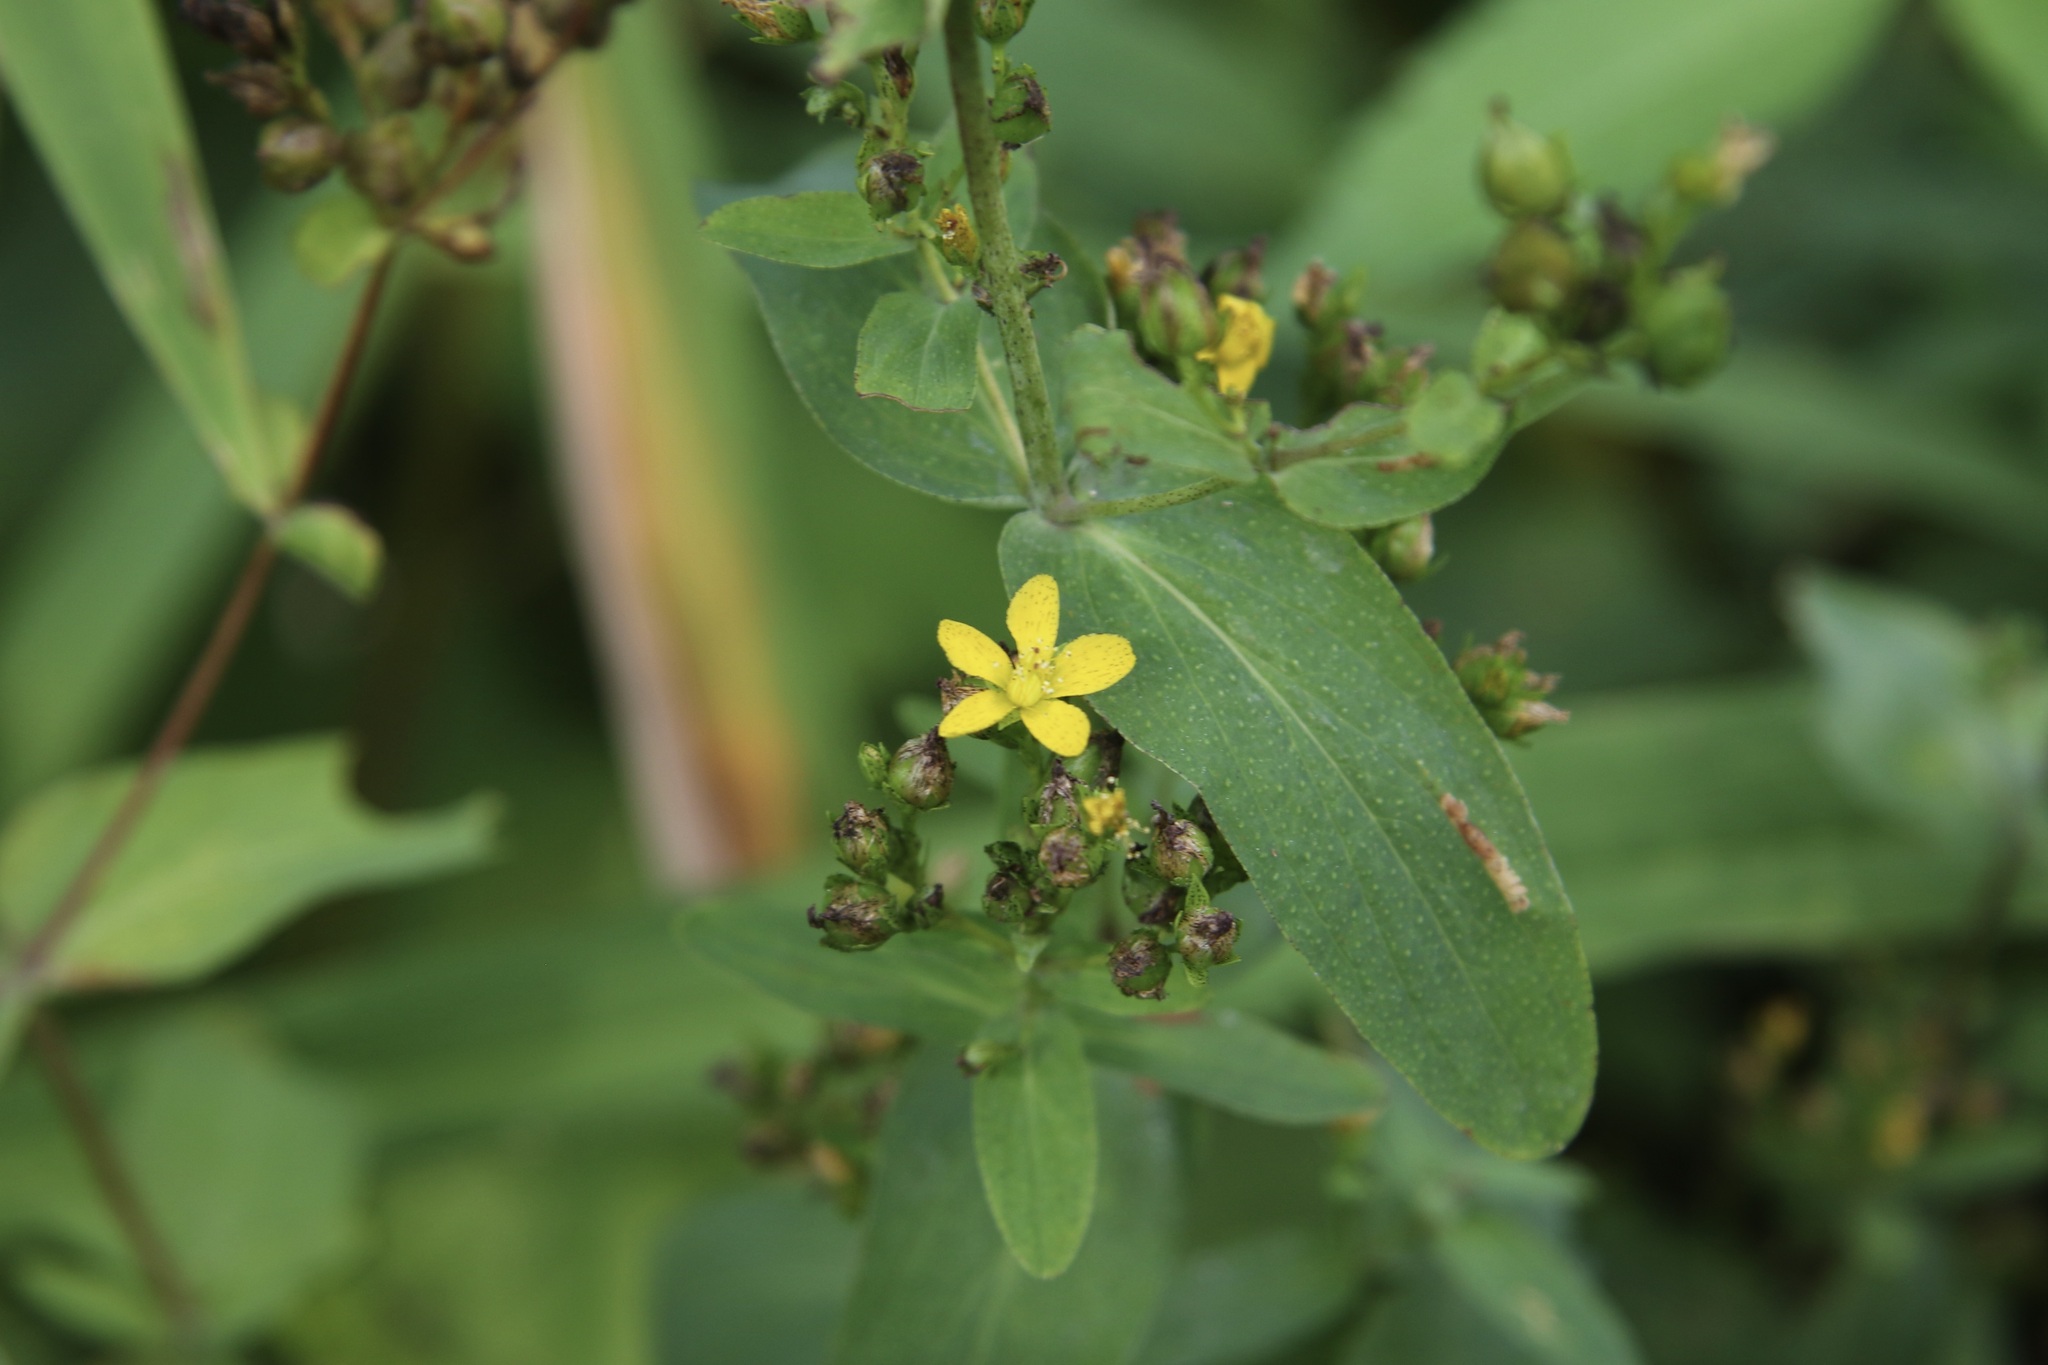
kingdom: Plantae
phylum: Tracheophyta
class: Magnoliopsida
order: Malpighiales
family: Hypericaceae
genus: Hypericum
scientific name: Hypericum punctatum
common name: Spotted st. john's-wort
